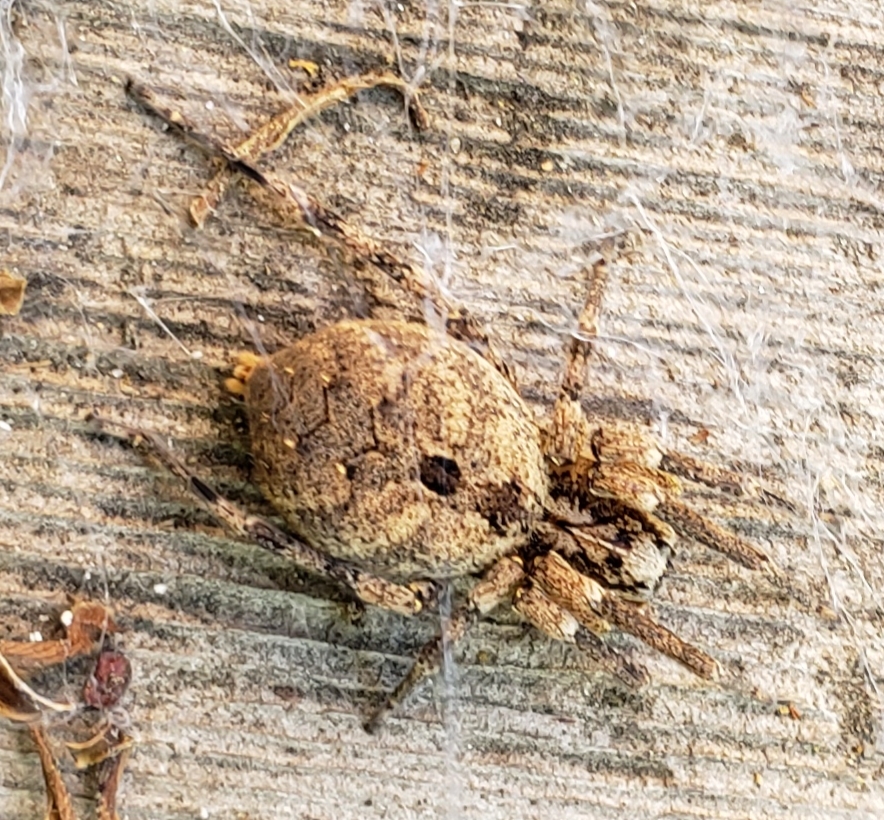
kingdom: Animalia
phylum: Arthropoda
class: Arachnida
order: Araneae
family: Zoropsidae
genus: Zoropsis
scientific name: Zoropsis spinimana
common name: Zoropsid spider
